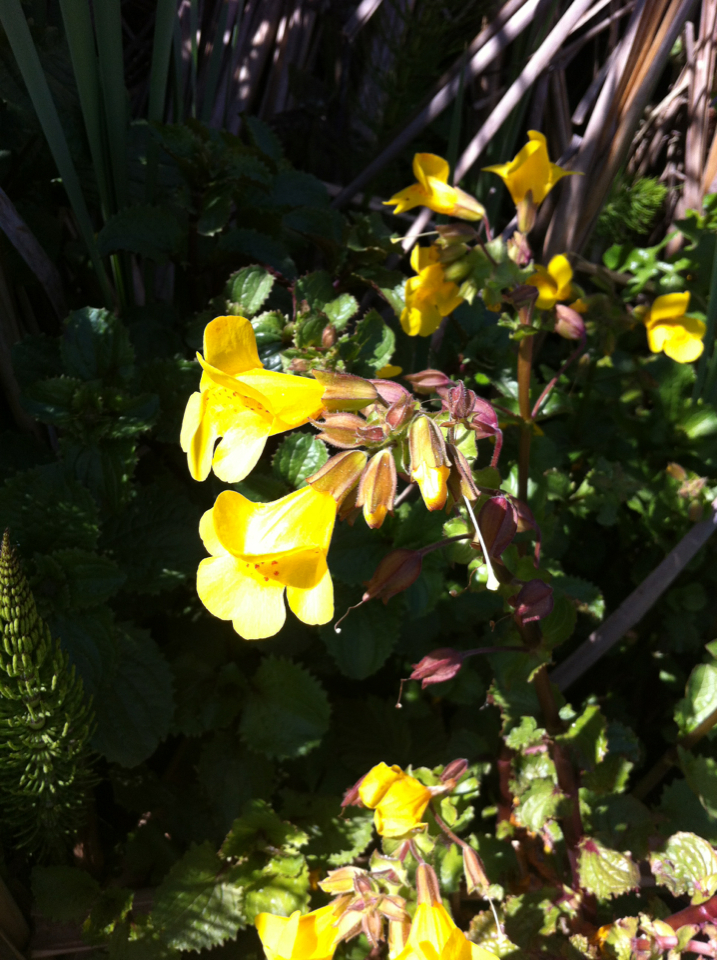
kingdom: Plantae
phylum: Tracheophyta
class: Magnoliopsida
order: Lamiales
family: Phrymaceae
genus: Erythranthe
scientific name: Erythranthe guttata
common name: Monkeyflower
